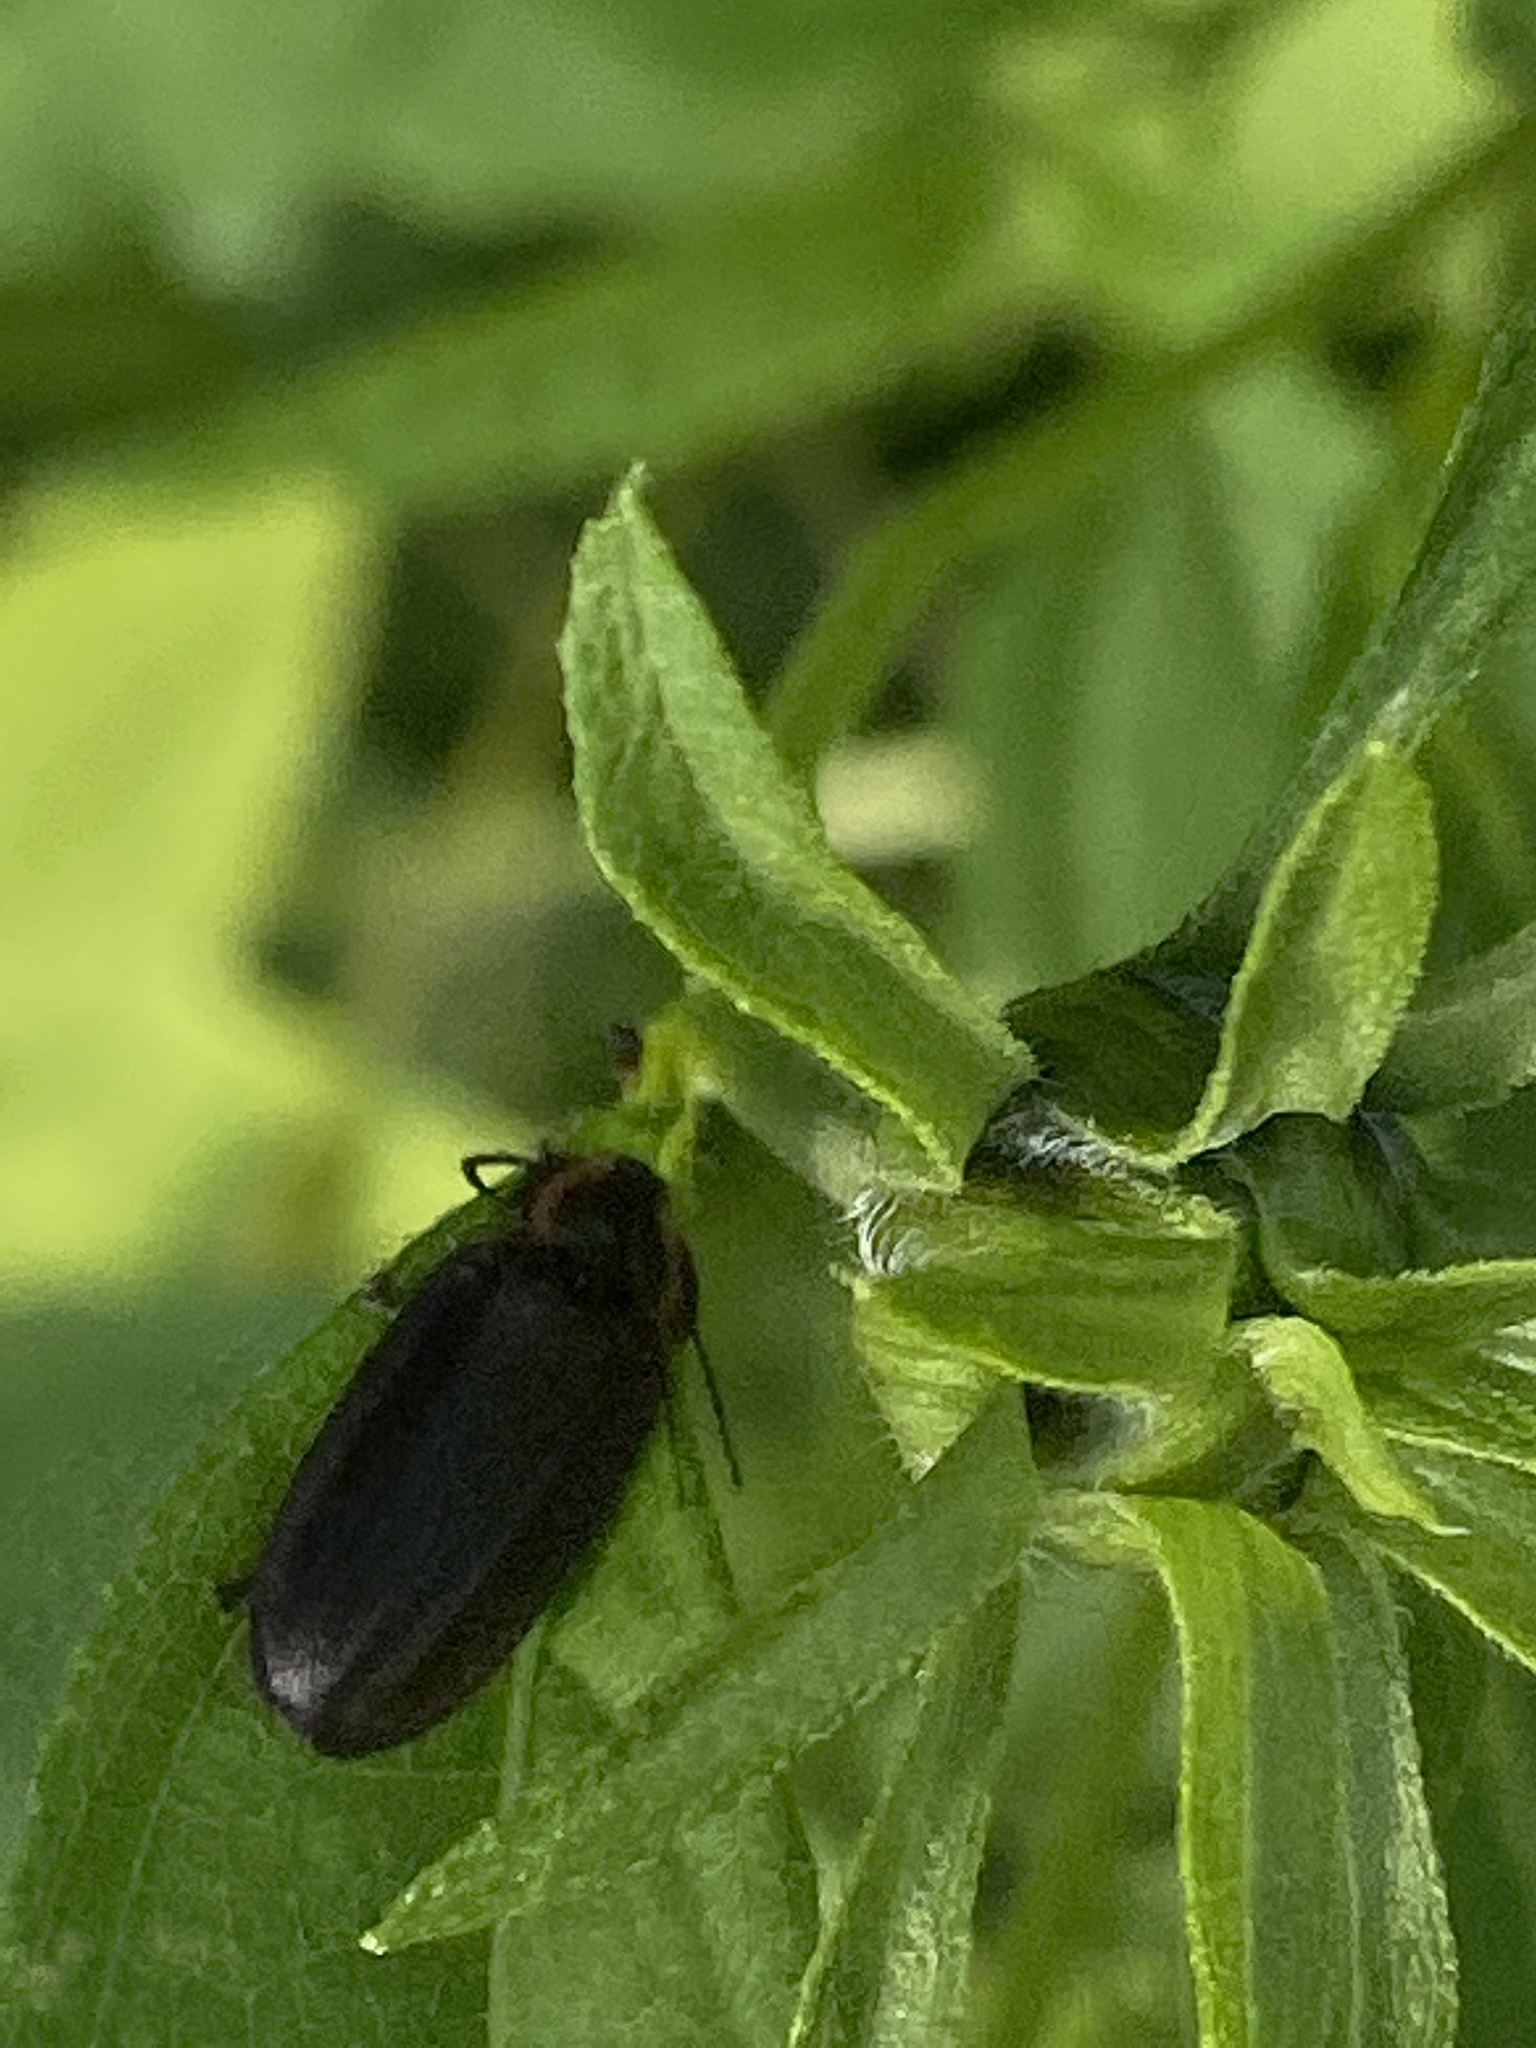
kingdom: Animalia
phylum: Arthropoda
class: Insecta
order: Coleoptera
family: Lampyridae
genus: Photinus
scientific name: Photinus corrusca
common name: Winter firefly
